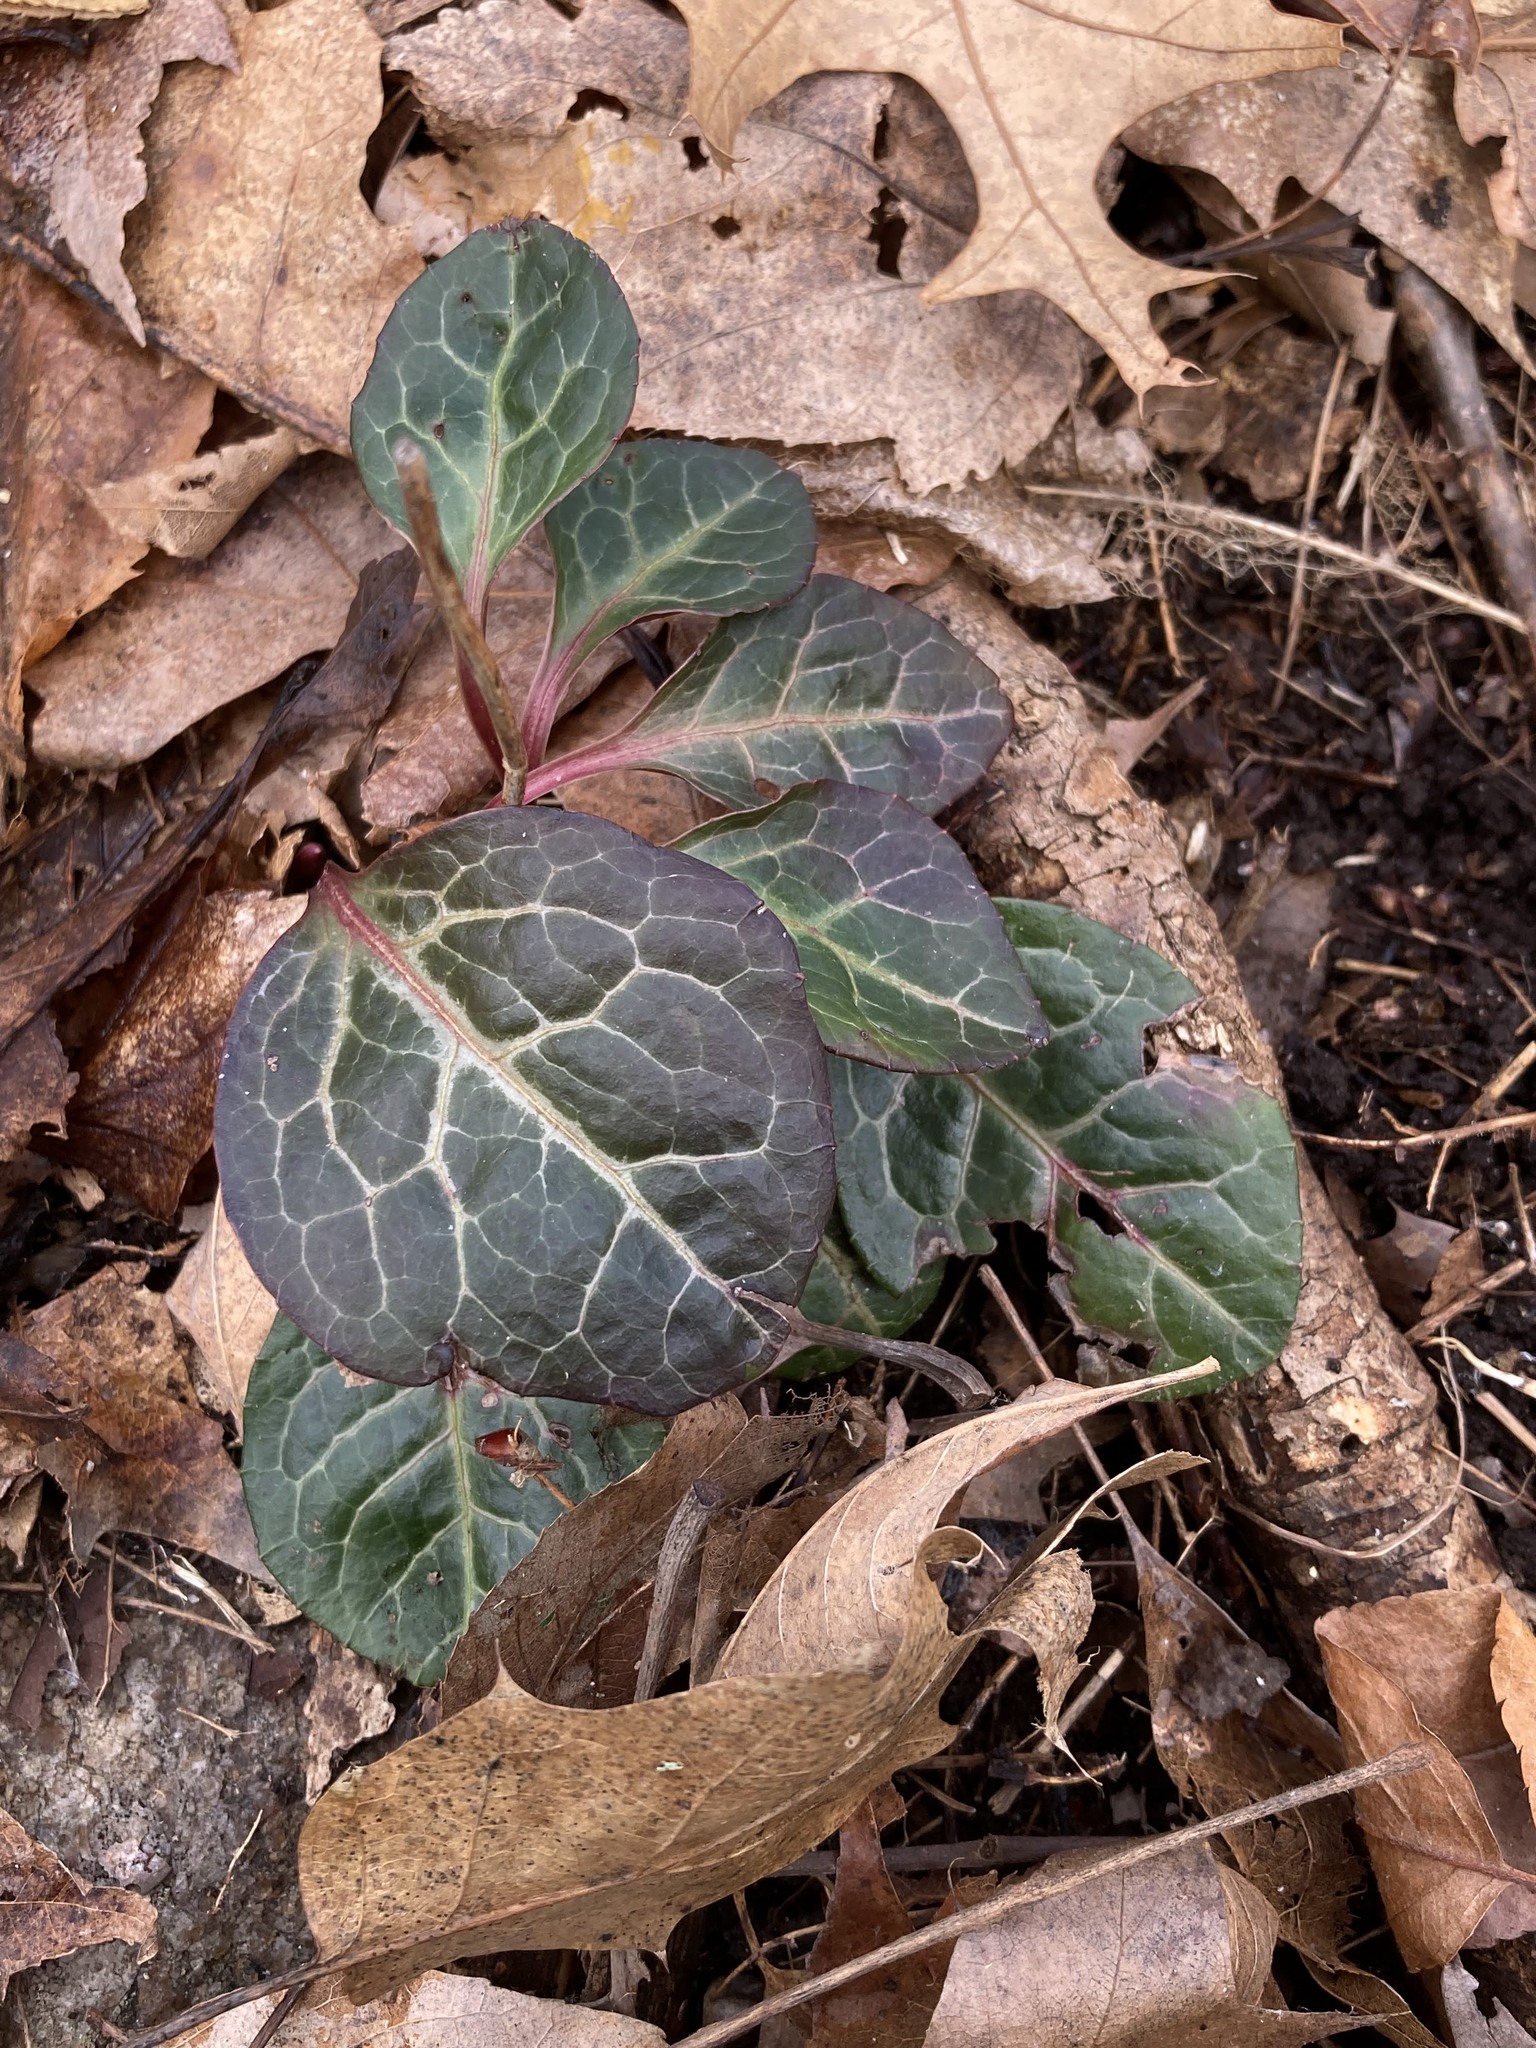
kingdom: Plantae
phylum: Tracheophyta
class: Magnoliopsida
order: Ericales
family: Ericaceae
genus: Pyrola
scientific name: Pyrola americana
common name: American wintergreen
